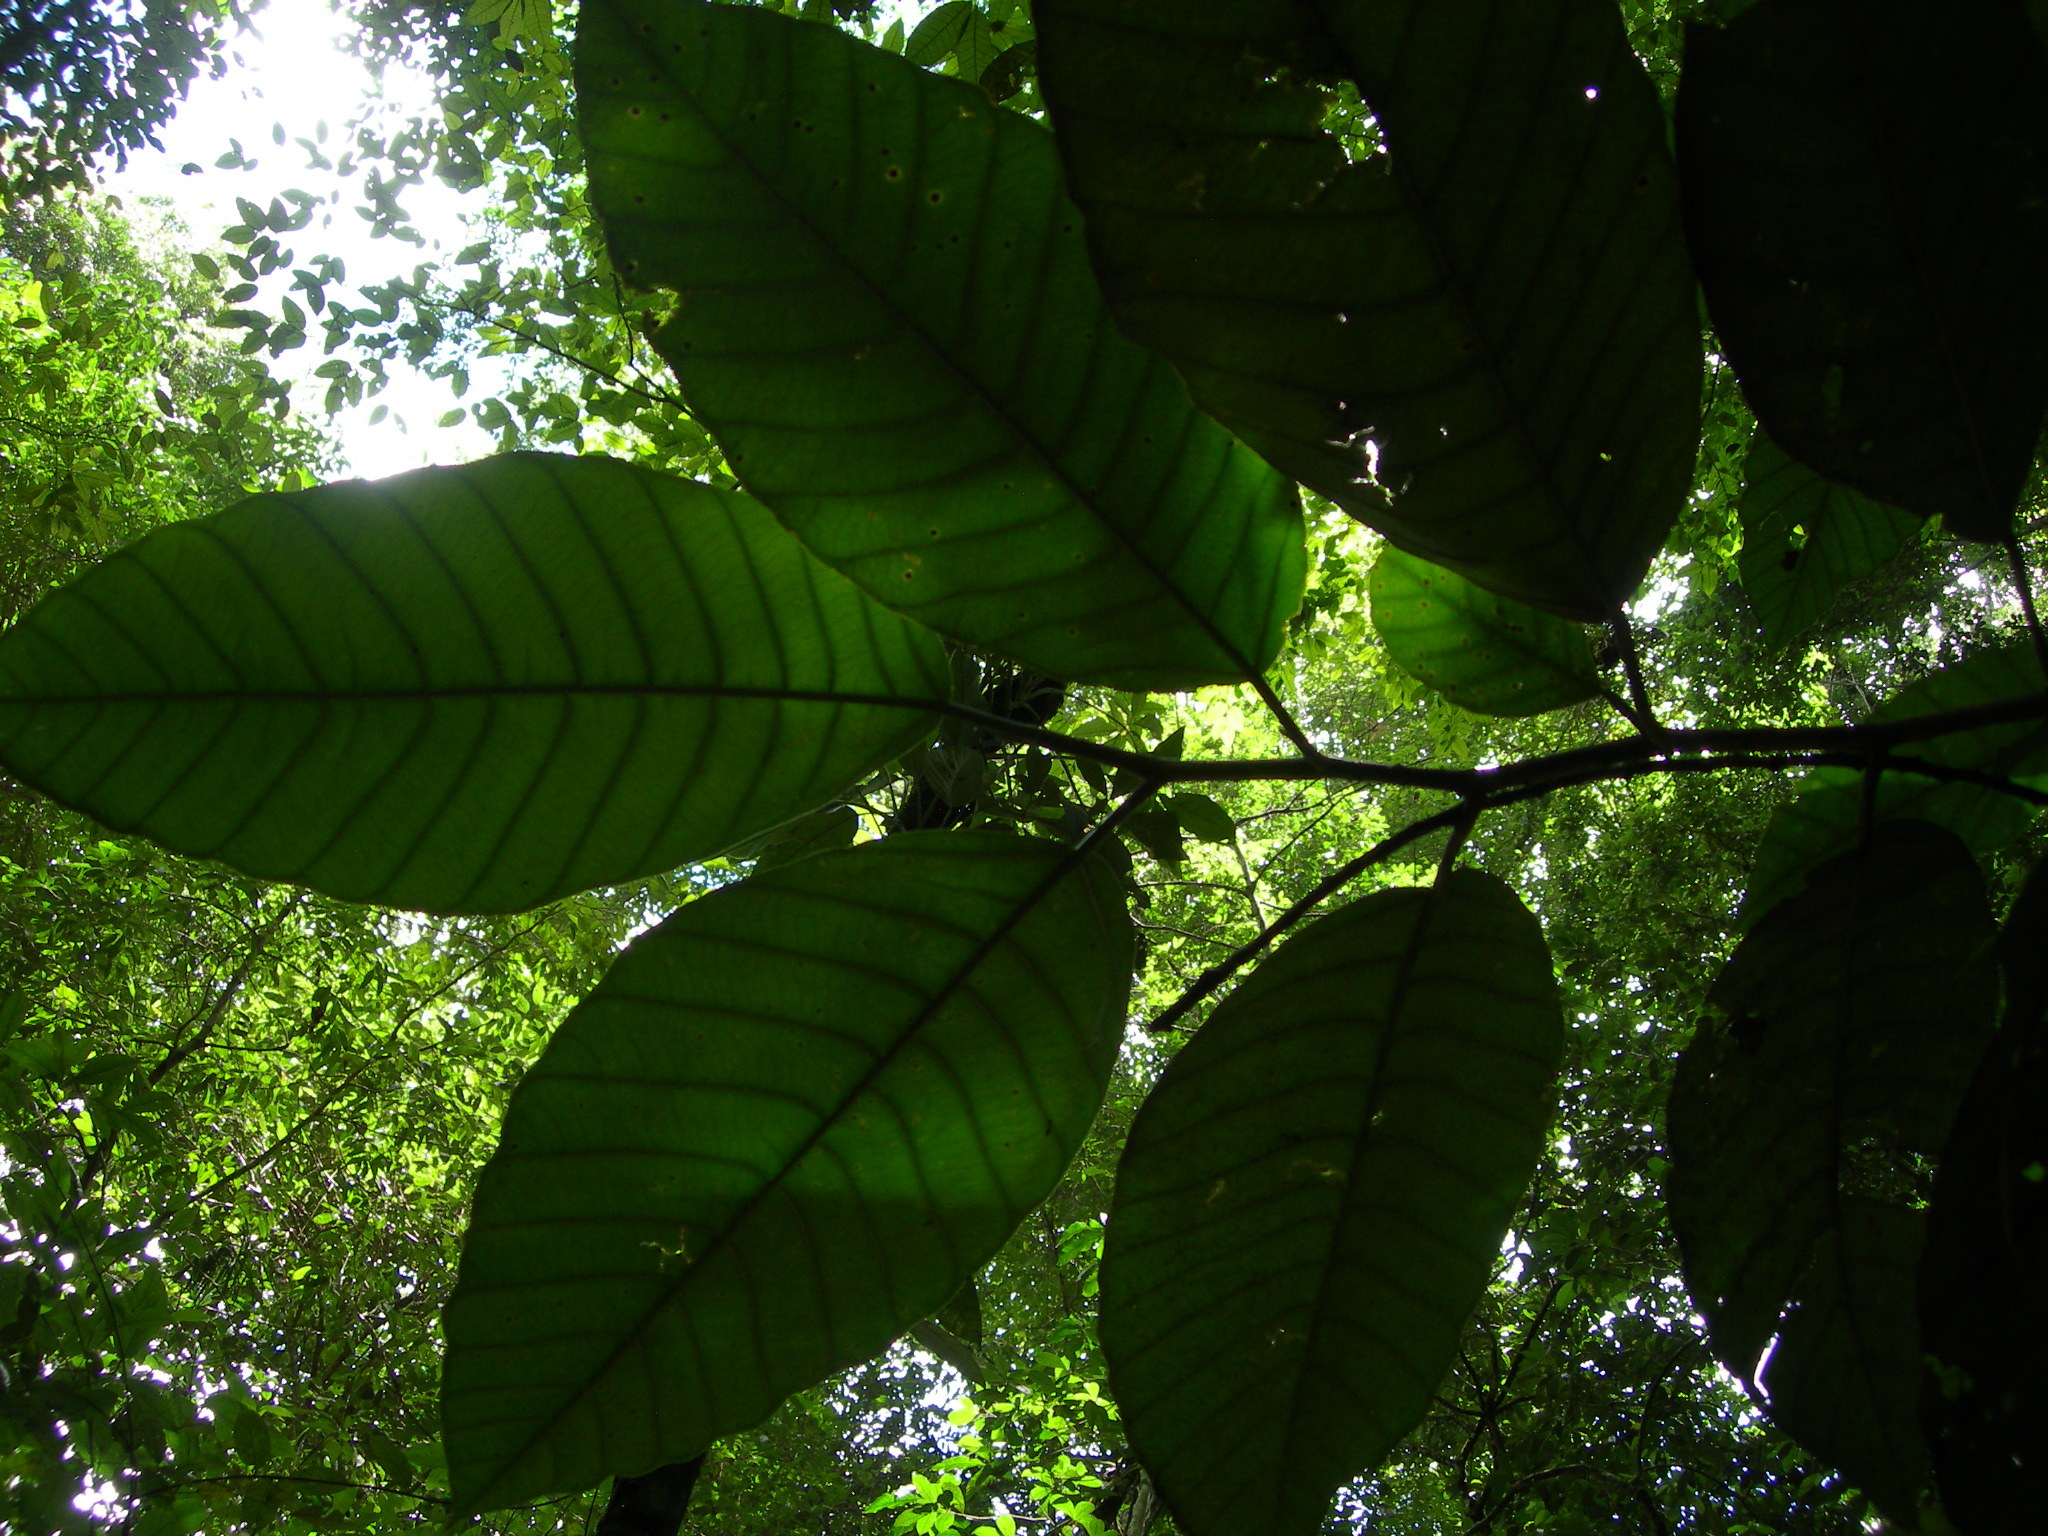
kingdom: Plantae
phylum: Tracheophyta
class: Magnoliopsida
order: Rosales
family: Moraceae
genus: Poulsenia
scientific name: Poulsenia armata
